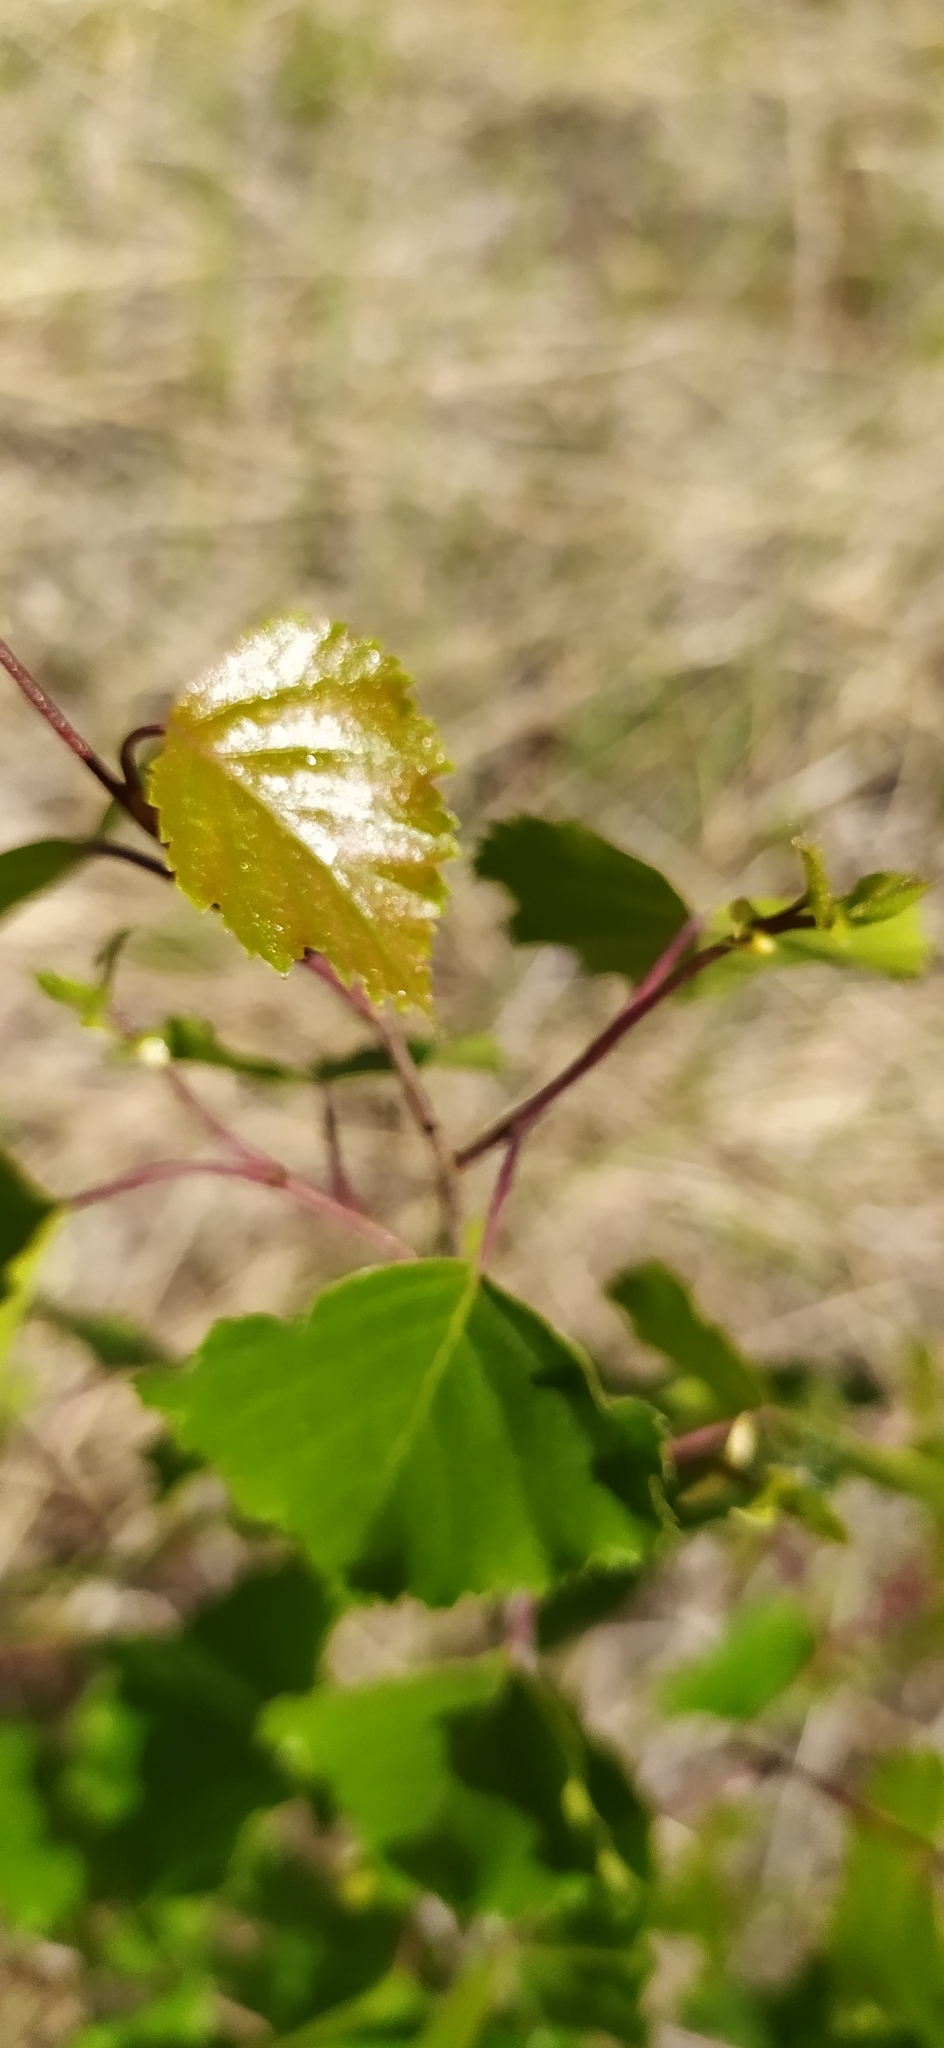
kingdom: Plantae
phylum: Tracheophyta
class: Magnoliopsida
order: Fagales
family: Betulaceae
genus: Betula
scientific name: Betula pendula
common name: Silver birch
